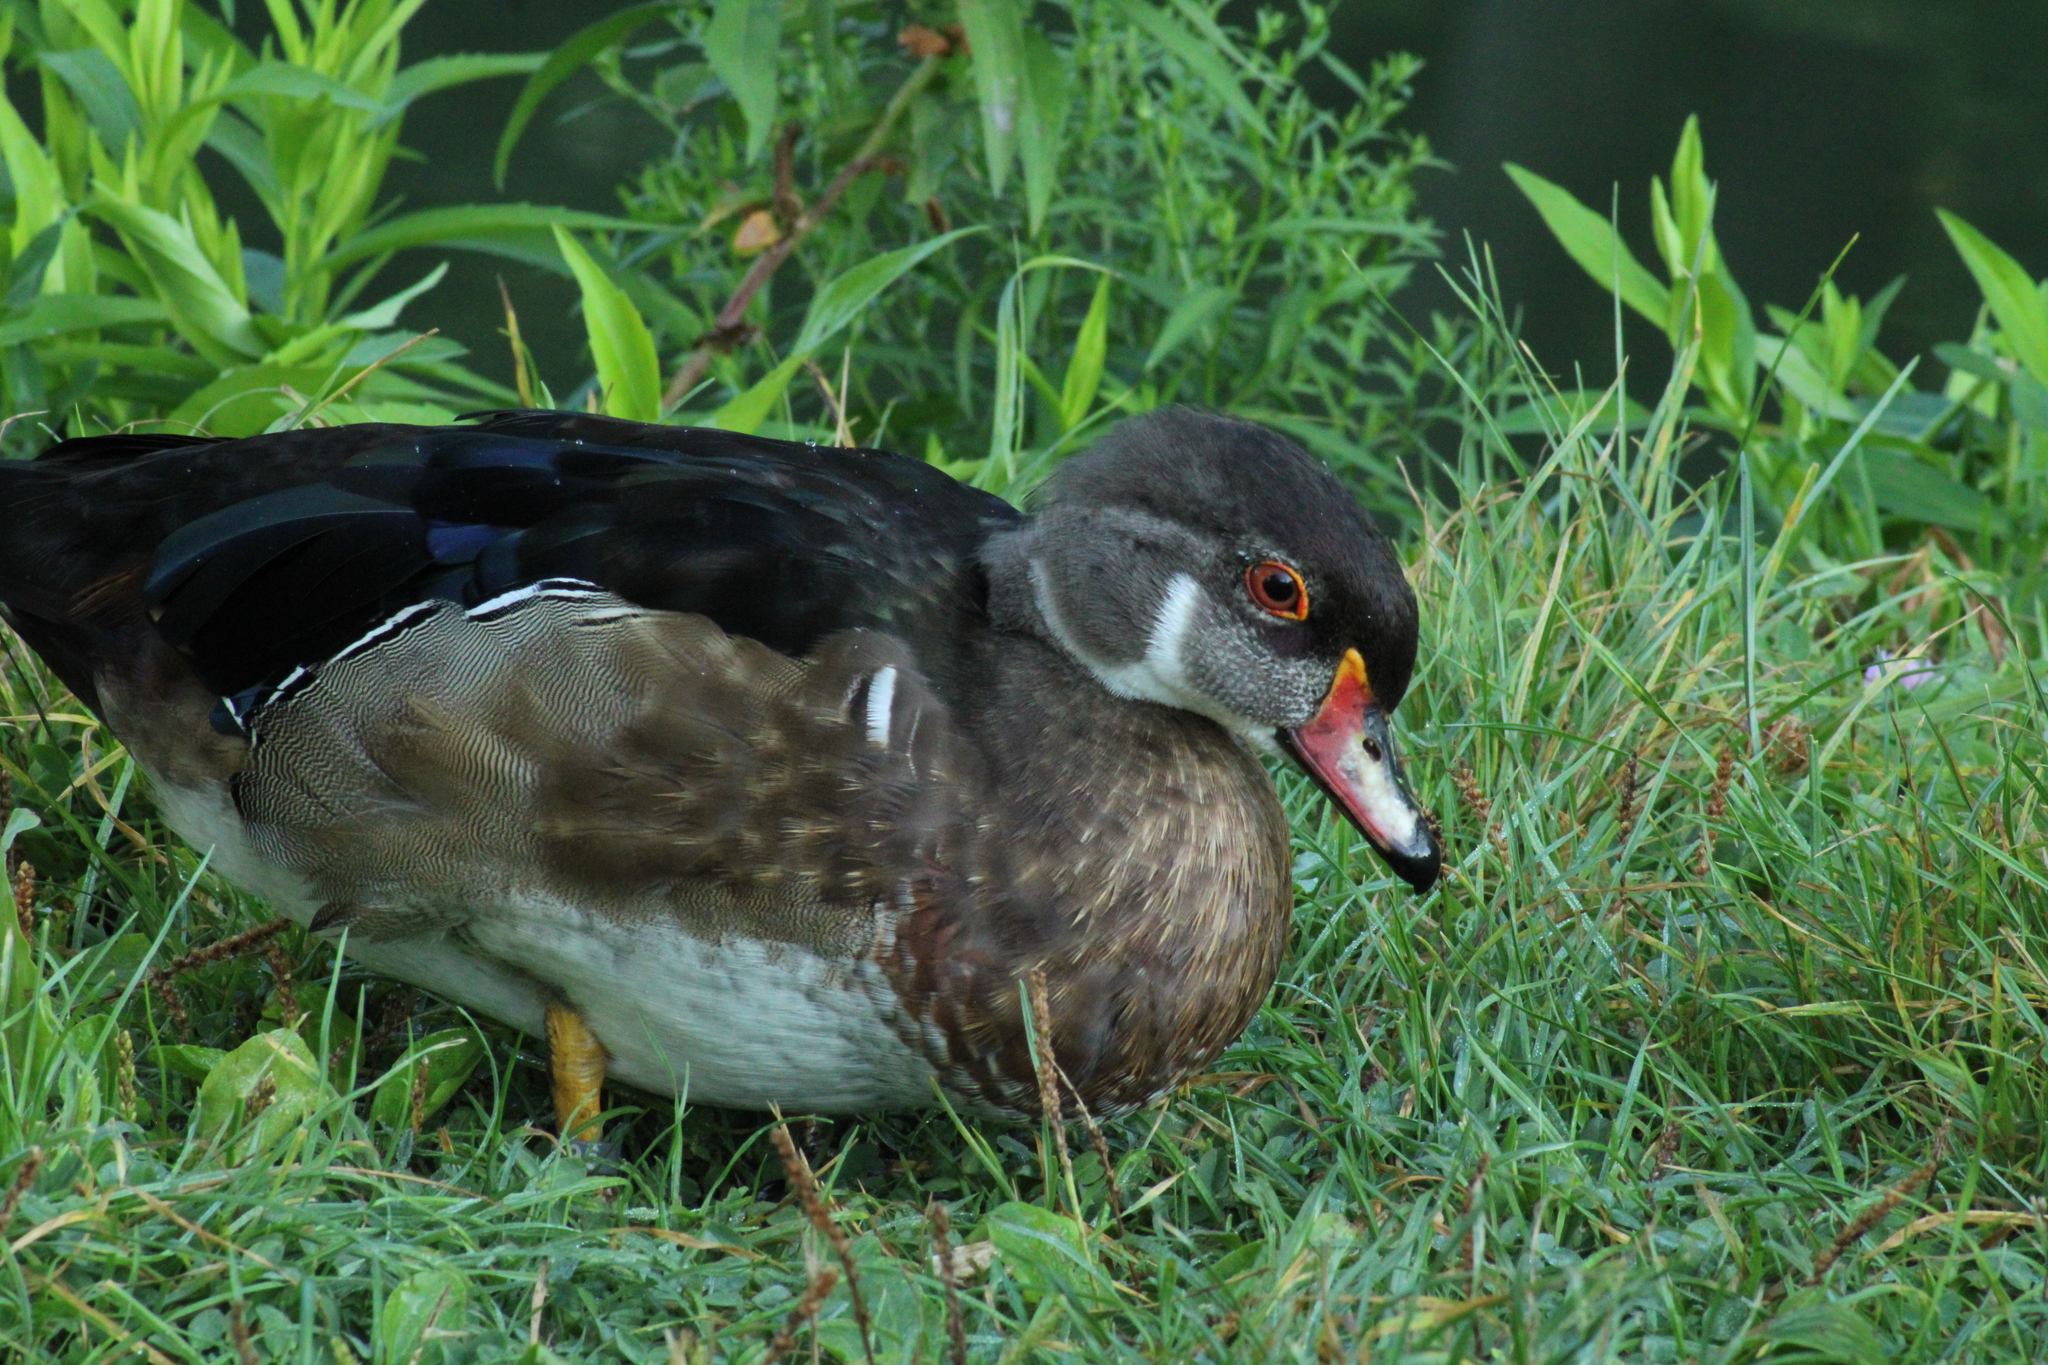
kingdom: Animalia
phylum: Chordata
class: Aves
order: Anseriformes
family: Anatidae
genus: Aix
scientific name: Aix sponsa
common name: Wood duck
